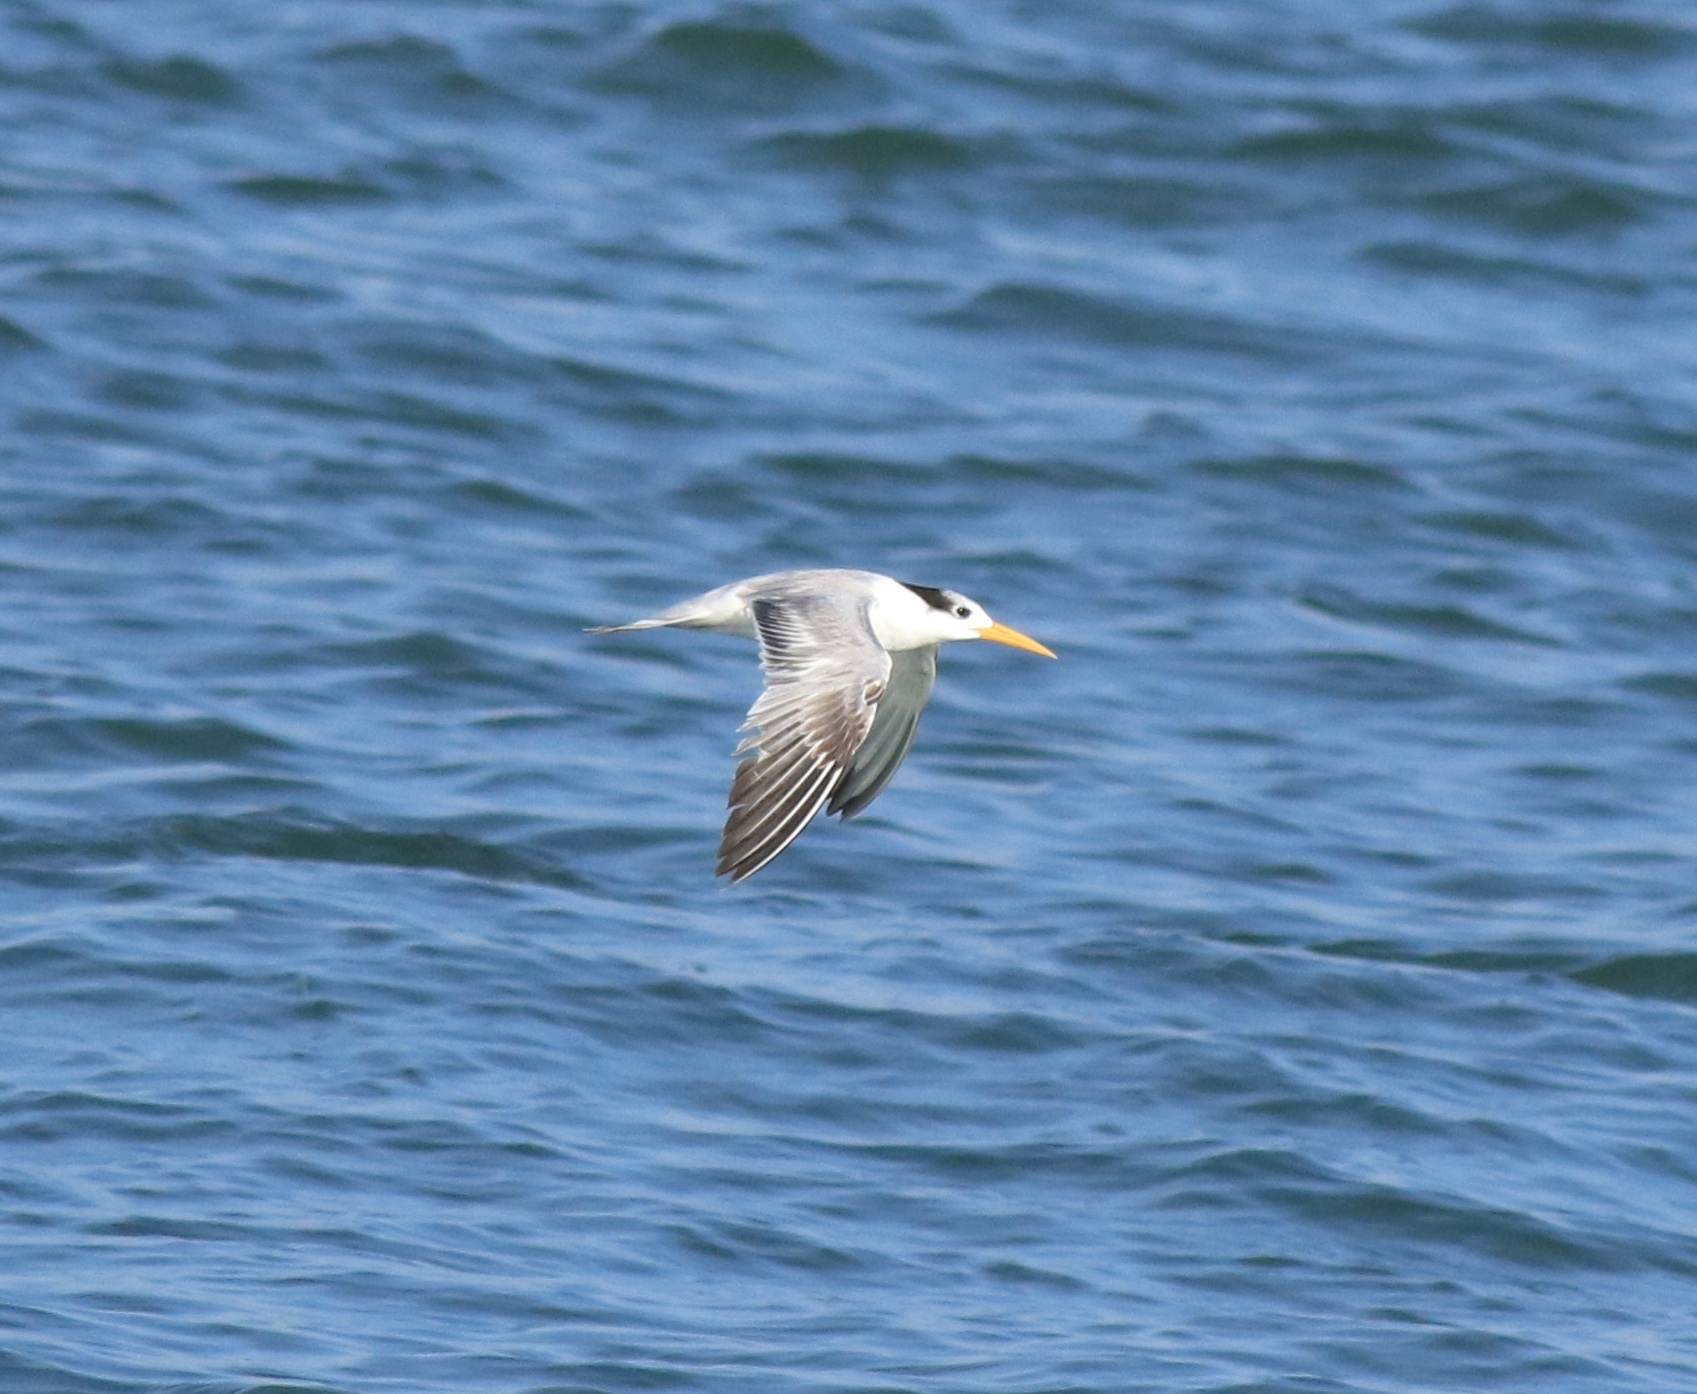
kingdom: Animalia
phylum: Chordata
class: Aves
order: Charadriiformes
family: Laridae
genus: Thalasseus
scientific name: Thalasseus bengalensis
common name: Lesser crested tern
